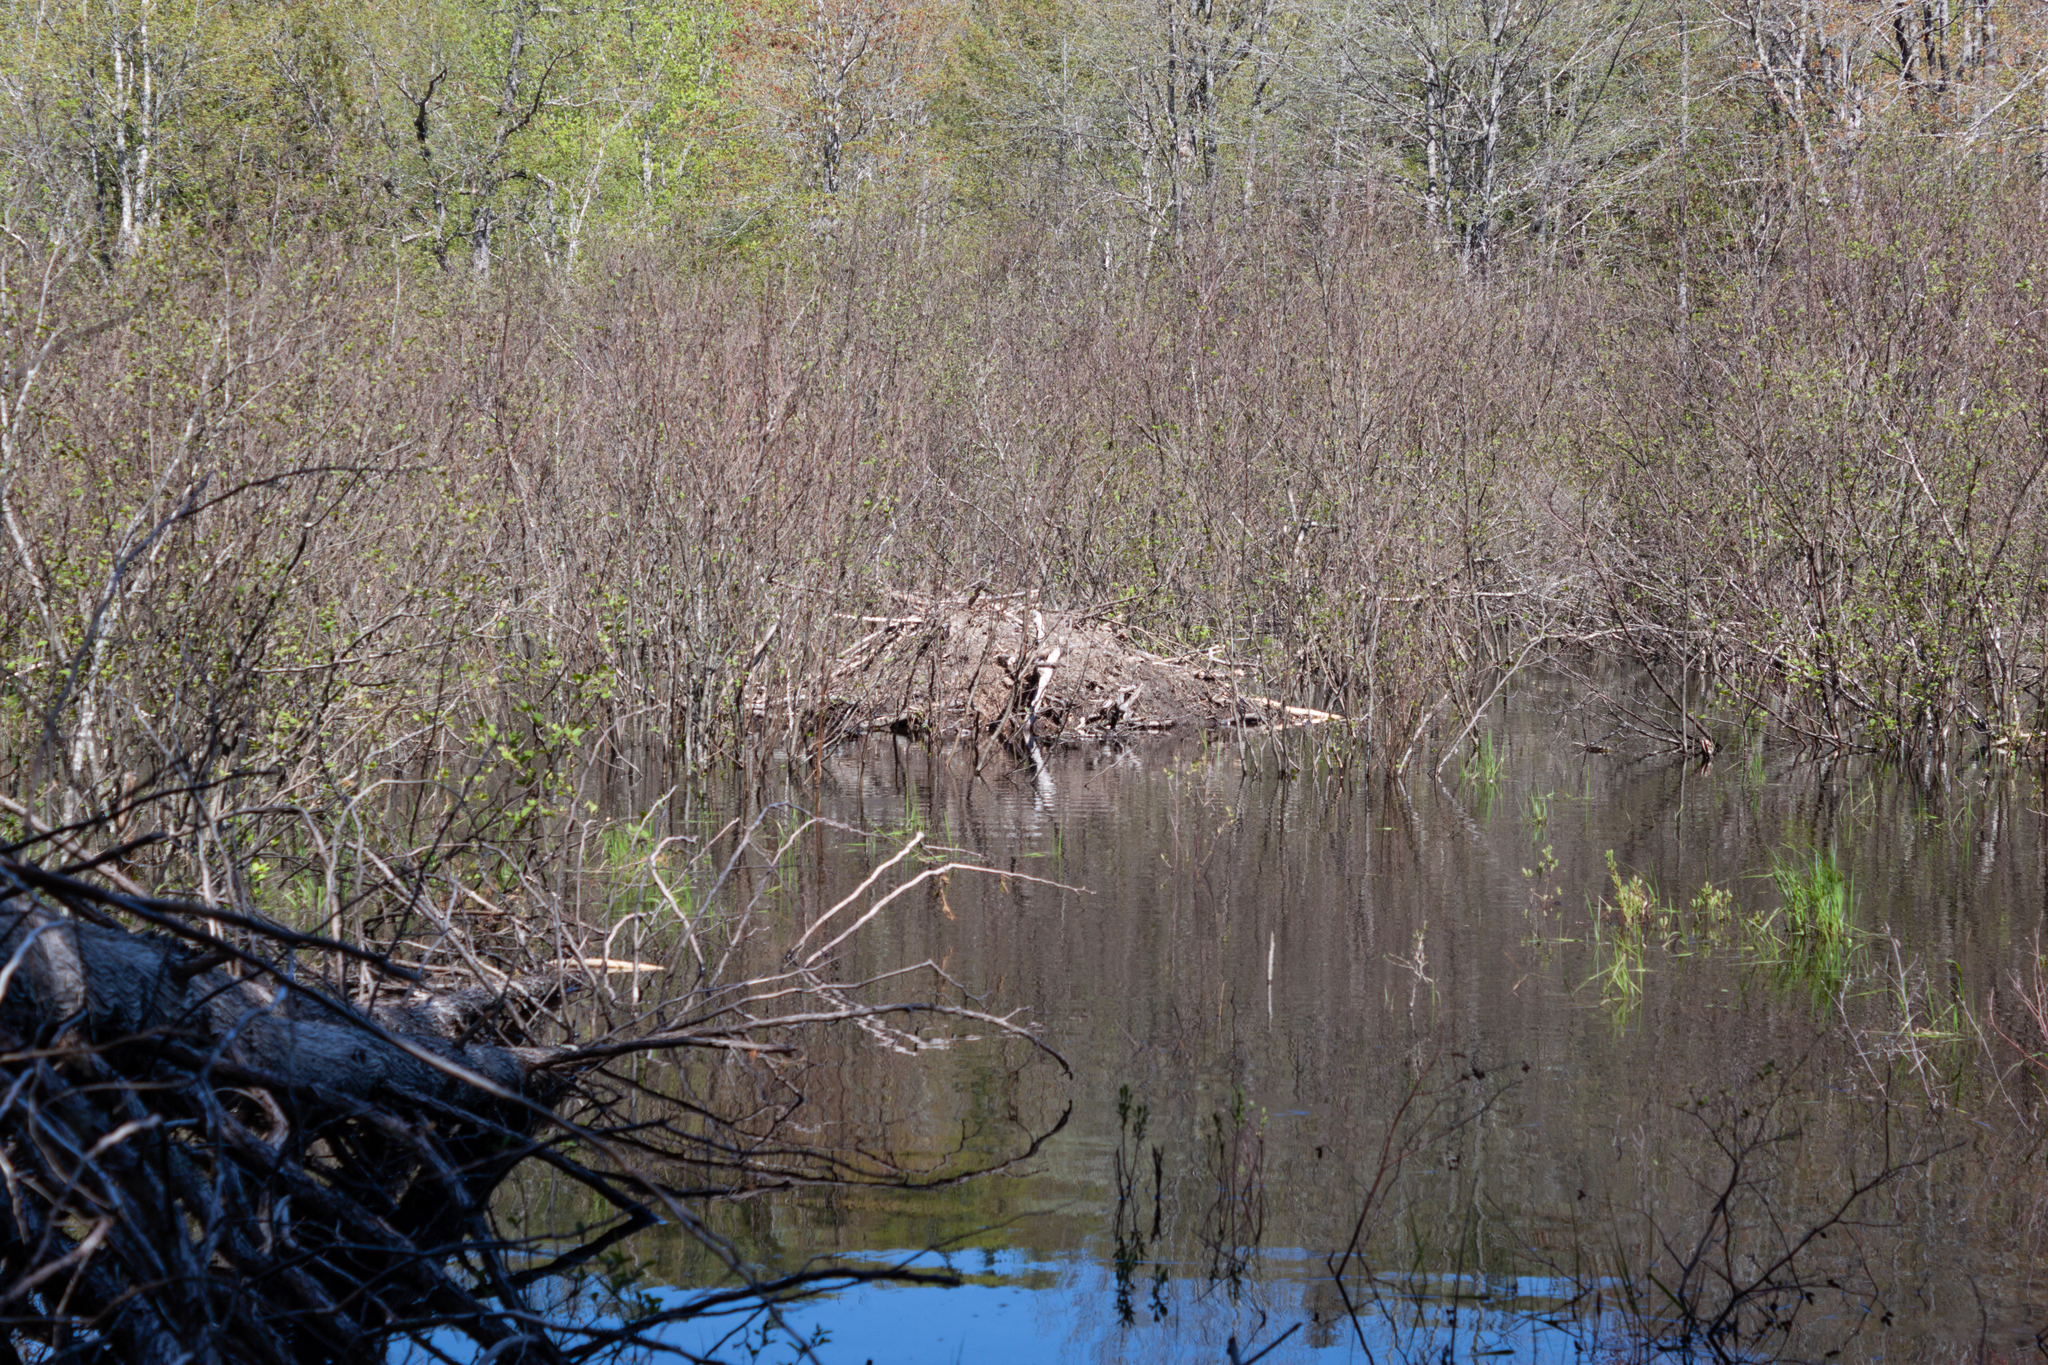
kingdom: Animalia
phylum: Chordata
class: Mammalia
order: Rodentia
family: Castoridae
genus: Castor
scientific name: Castor canadensis
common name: American beaver
